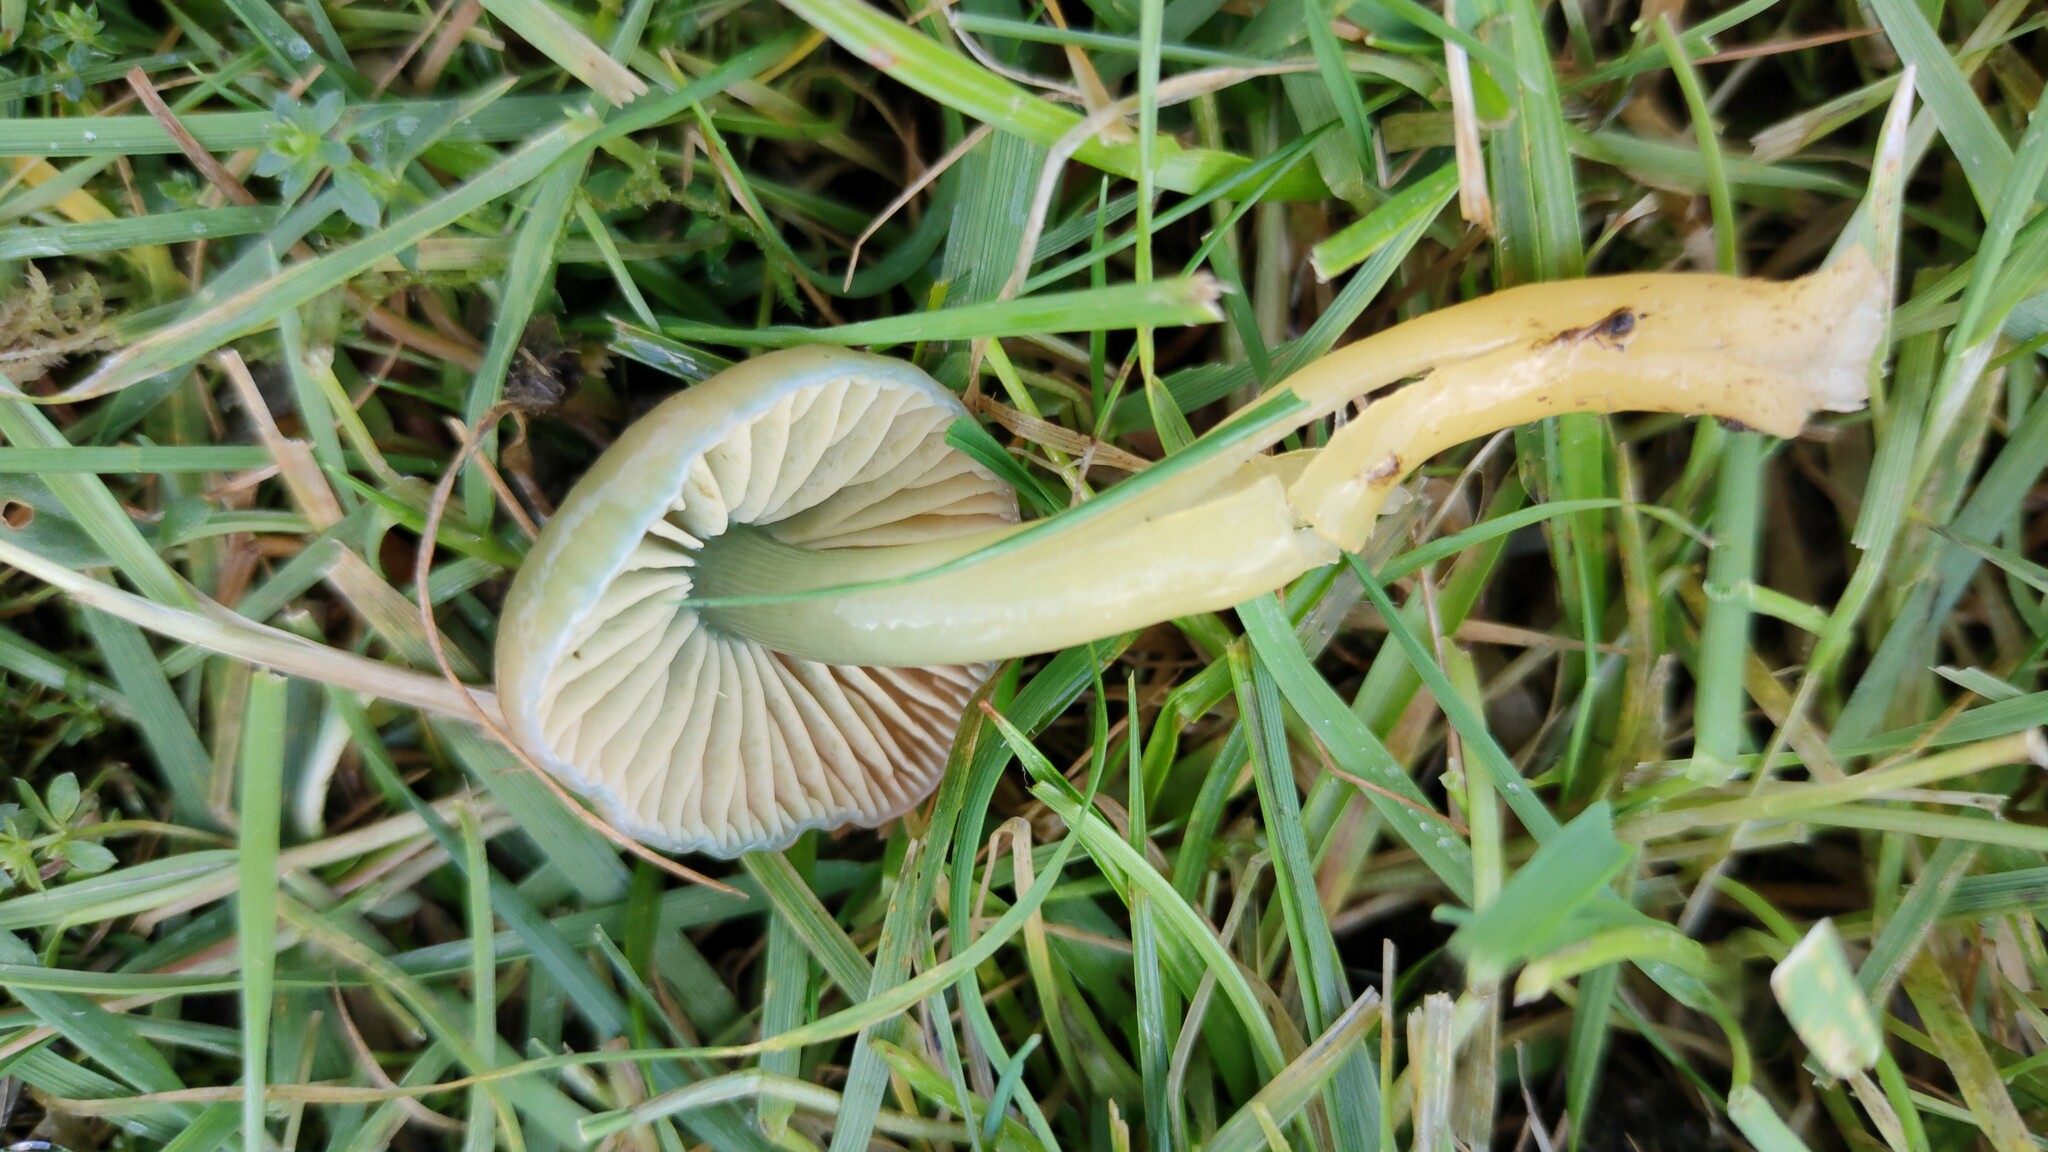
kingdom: Fungi
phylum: Basidiomycota
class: Agaricomycetes
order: Agaricales
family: Hygrophoraceae
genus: Gliophorus
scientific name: Gliophorus psittacinus
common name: Parrot wax-cap
